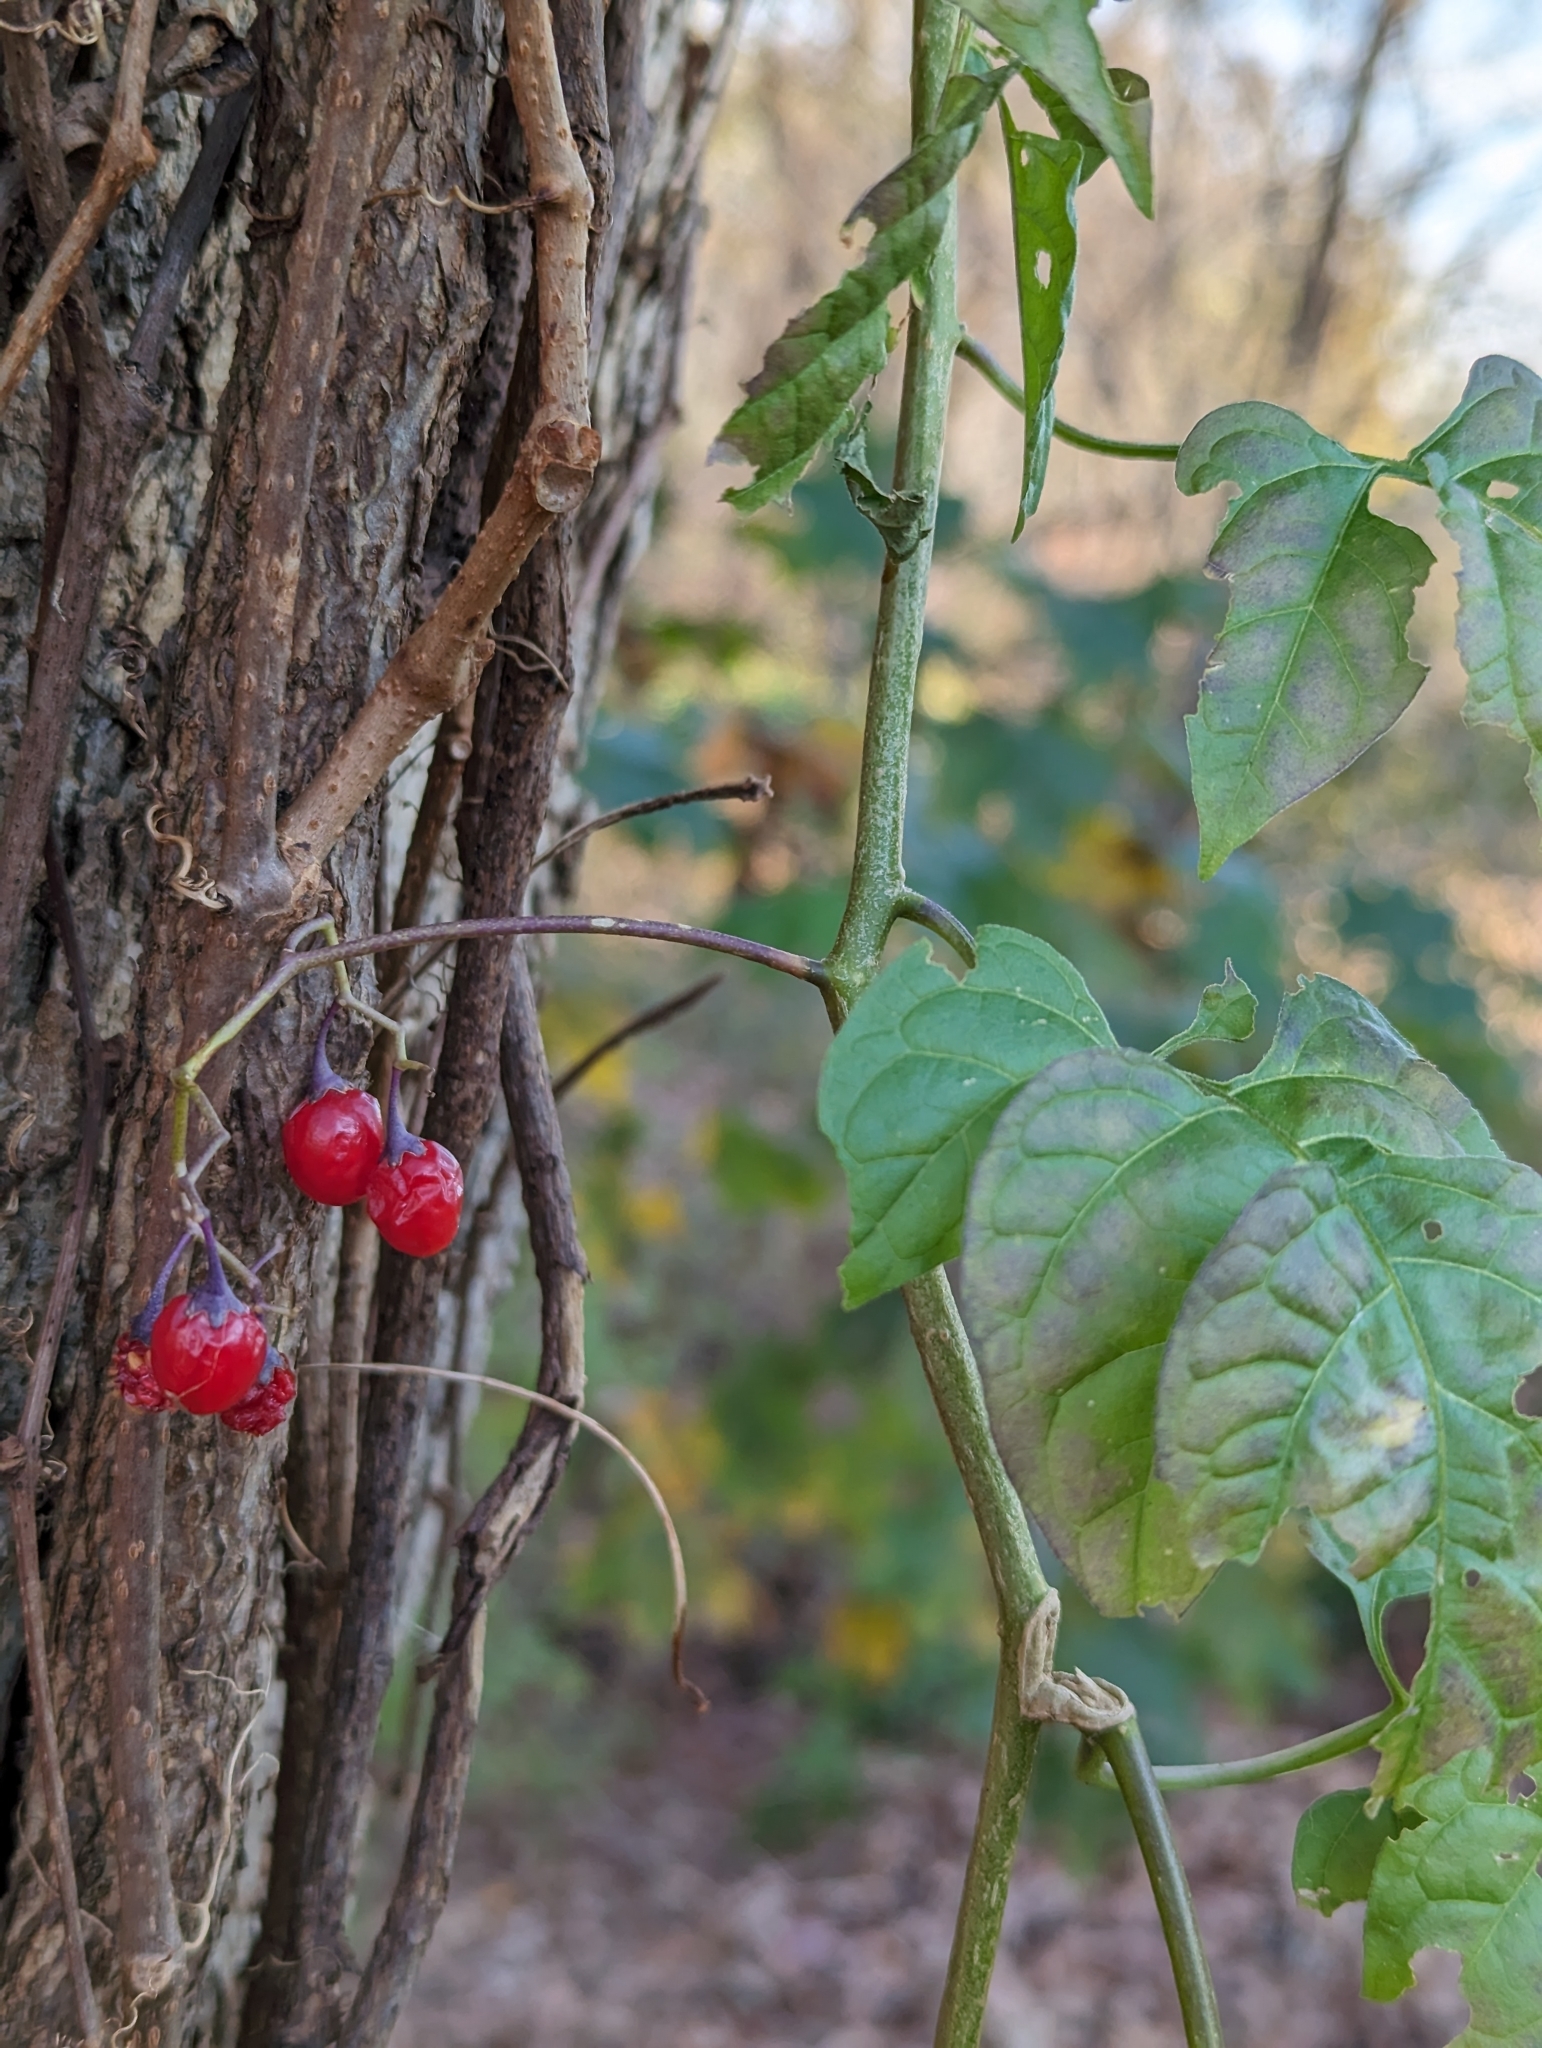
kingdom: Plantae
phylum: Tracheophyta
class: Magnoliopsida
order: Solanales
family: Solanaceae
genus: Solanum
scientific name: Solanum dulcamara
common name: Climbing nightshade
